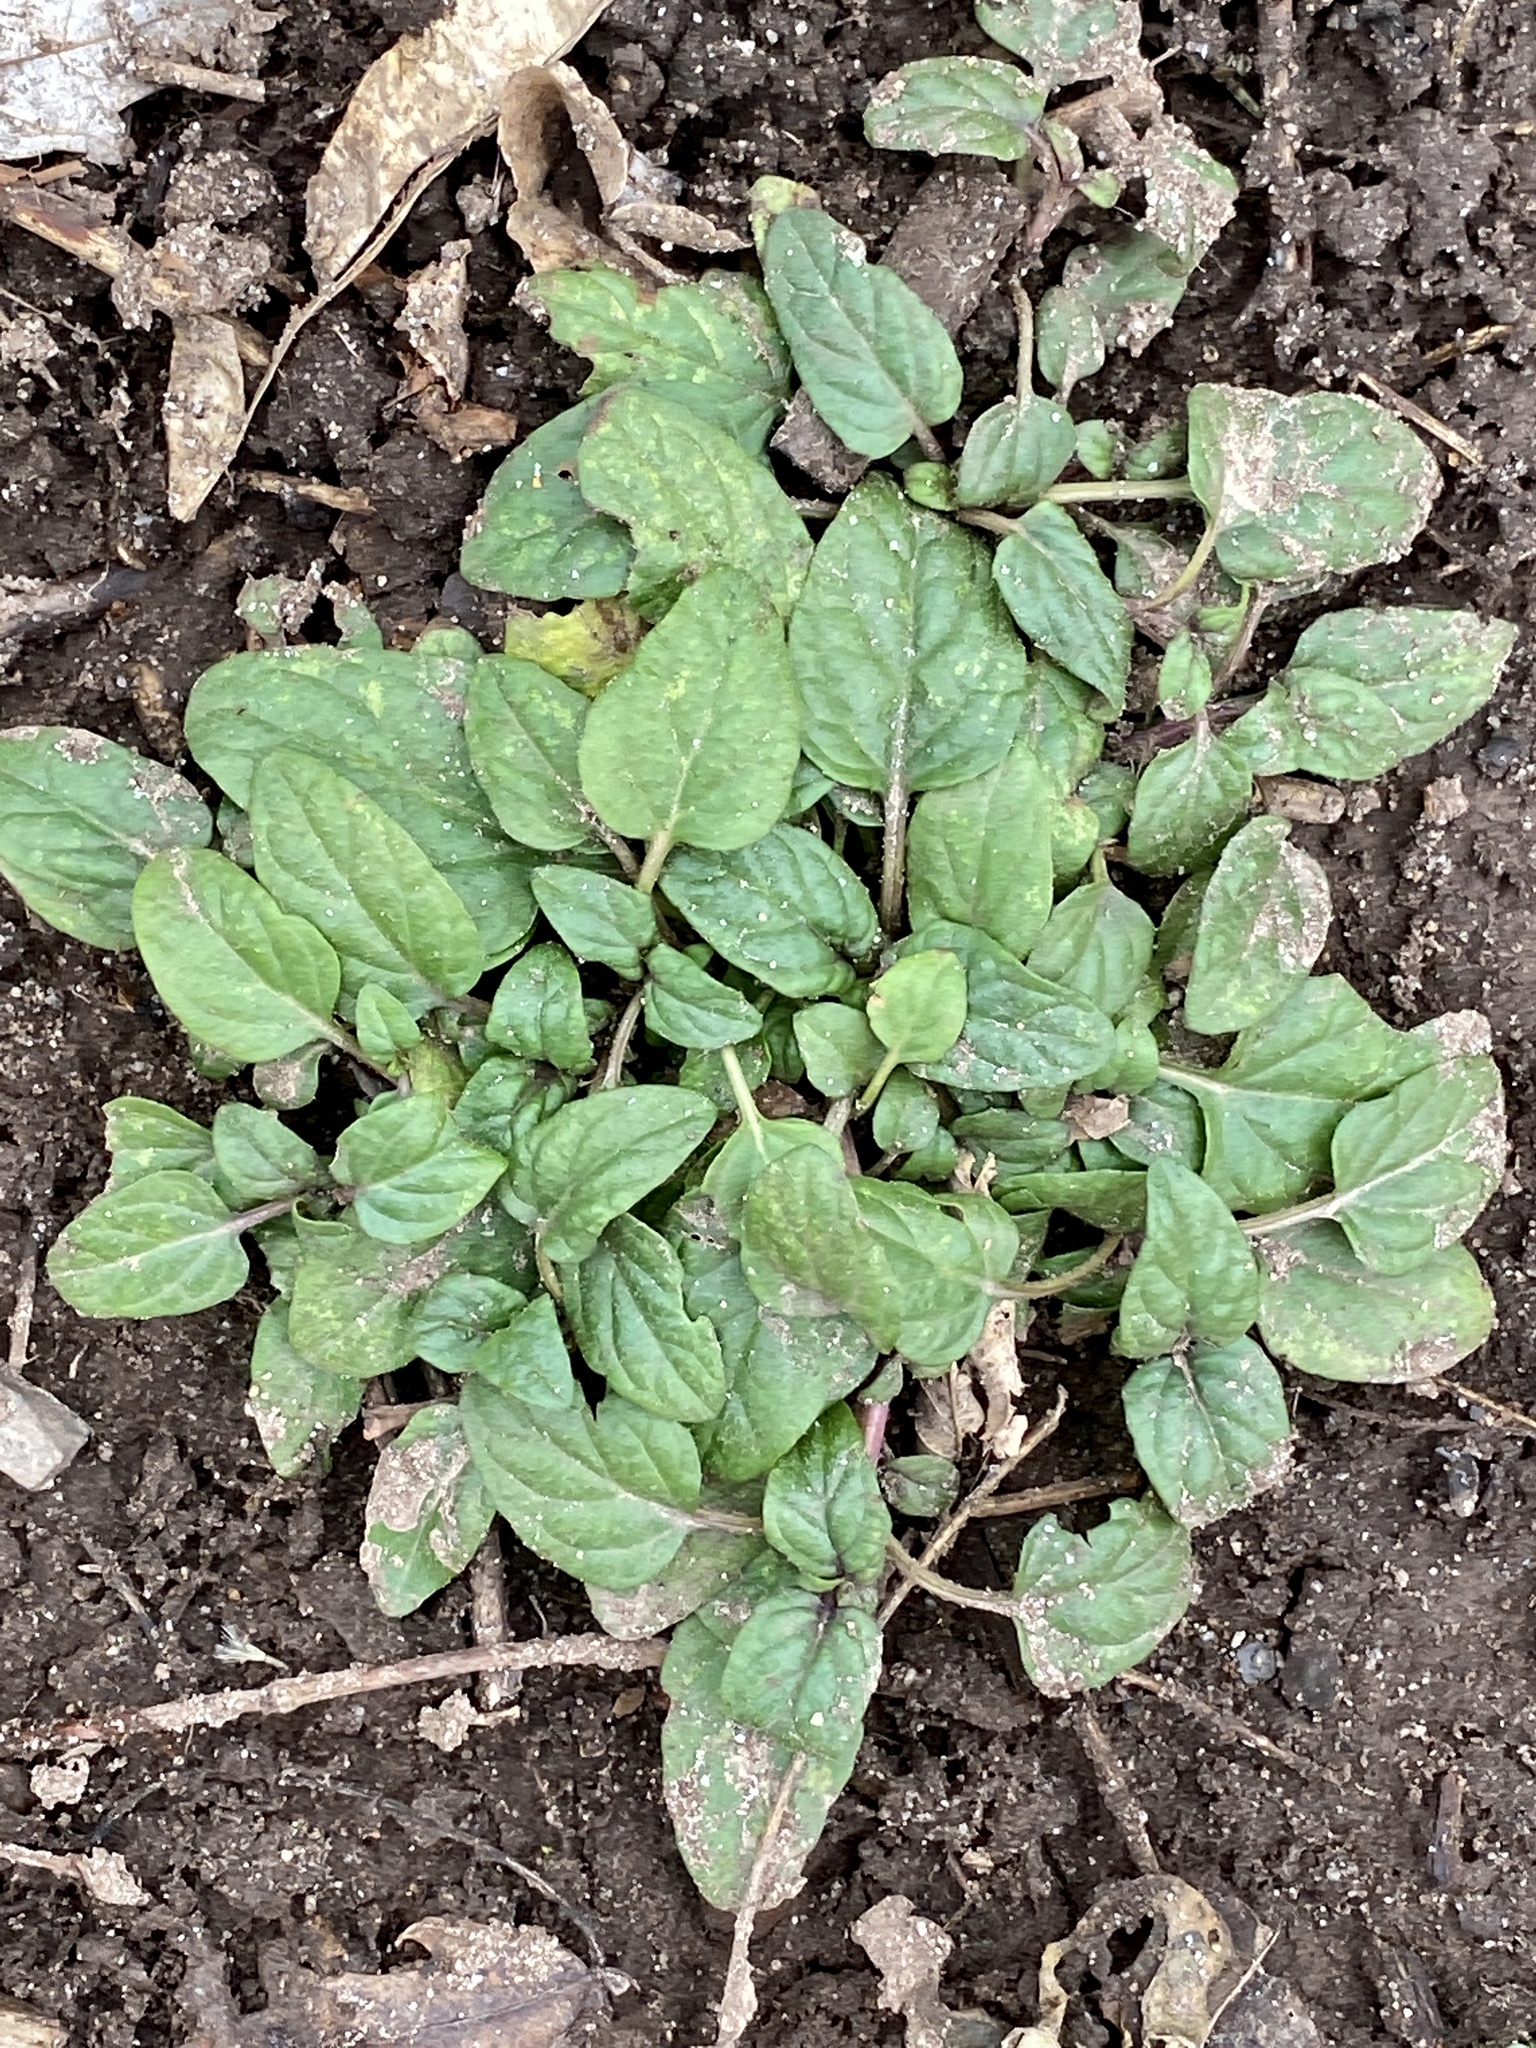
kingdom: Plantae
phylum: Tracheophyta
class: Magnoliopsida
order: Lamiales
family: Lamiaceae
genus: Prunella
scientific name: Prunella vulgaris
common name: Heal-all
